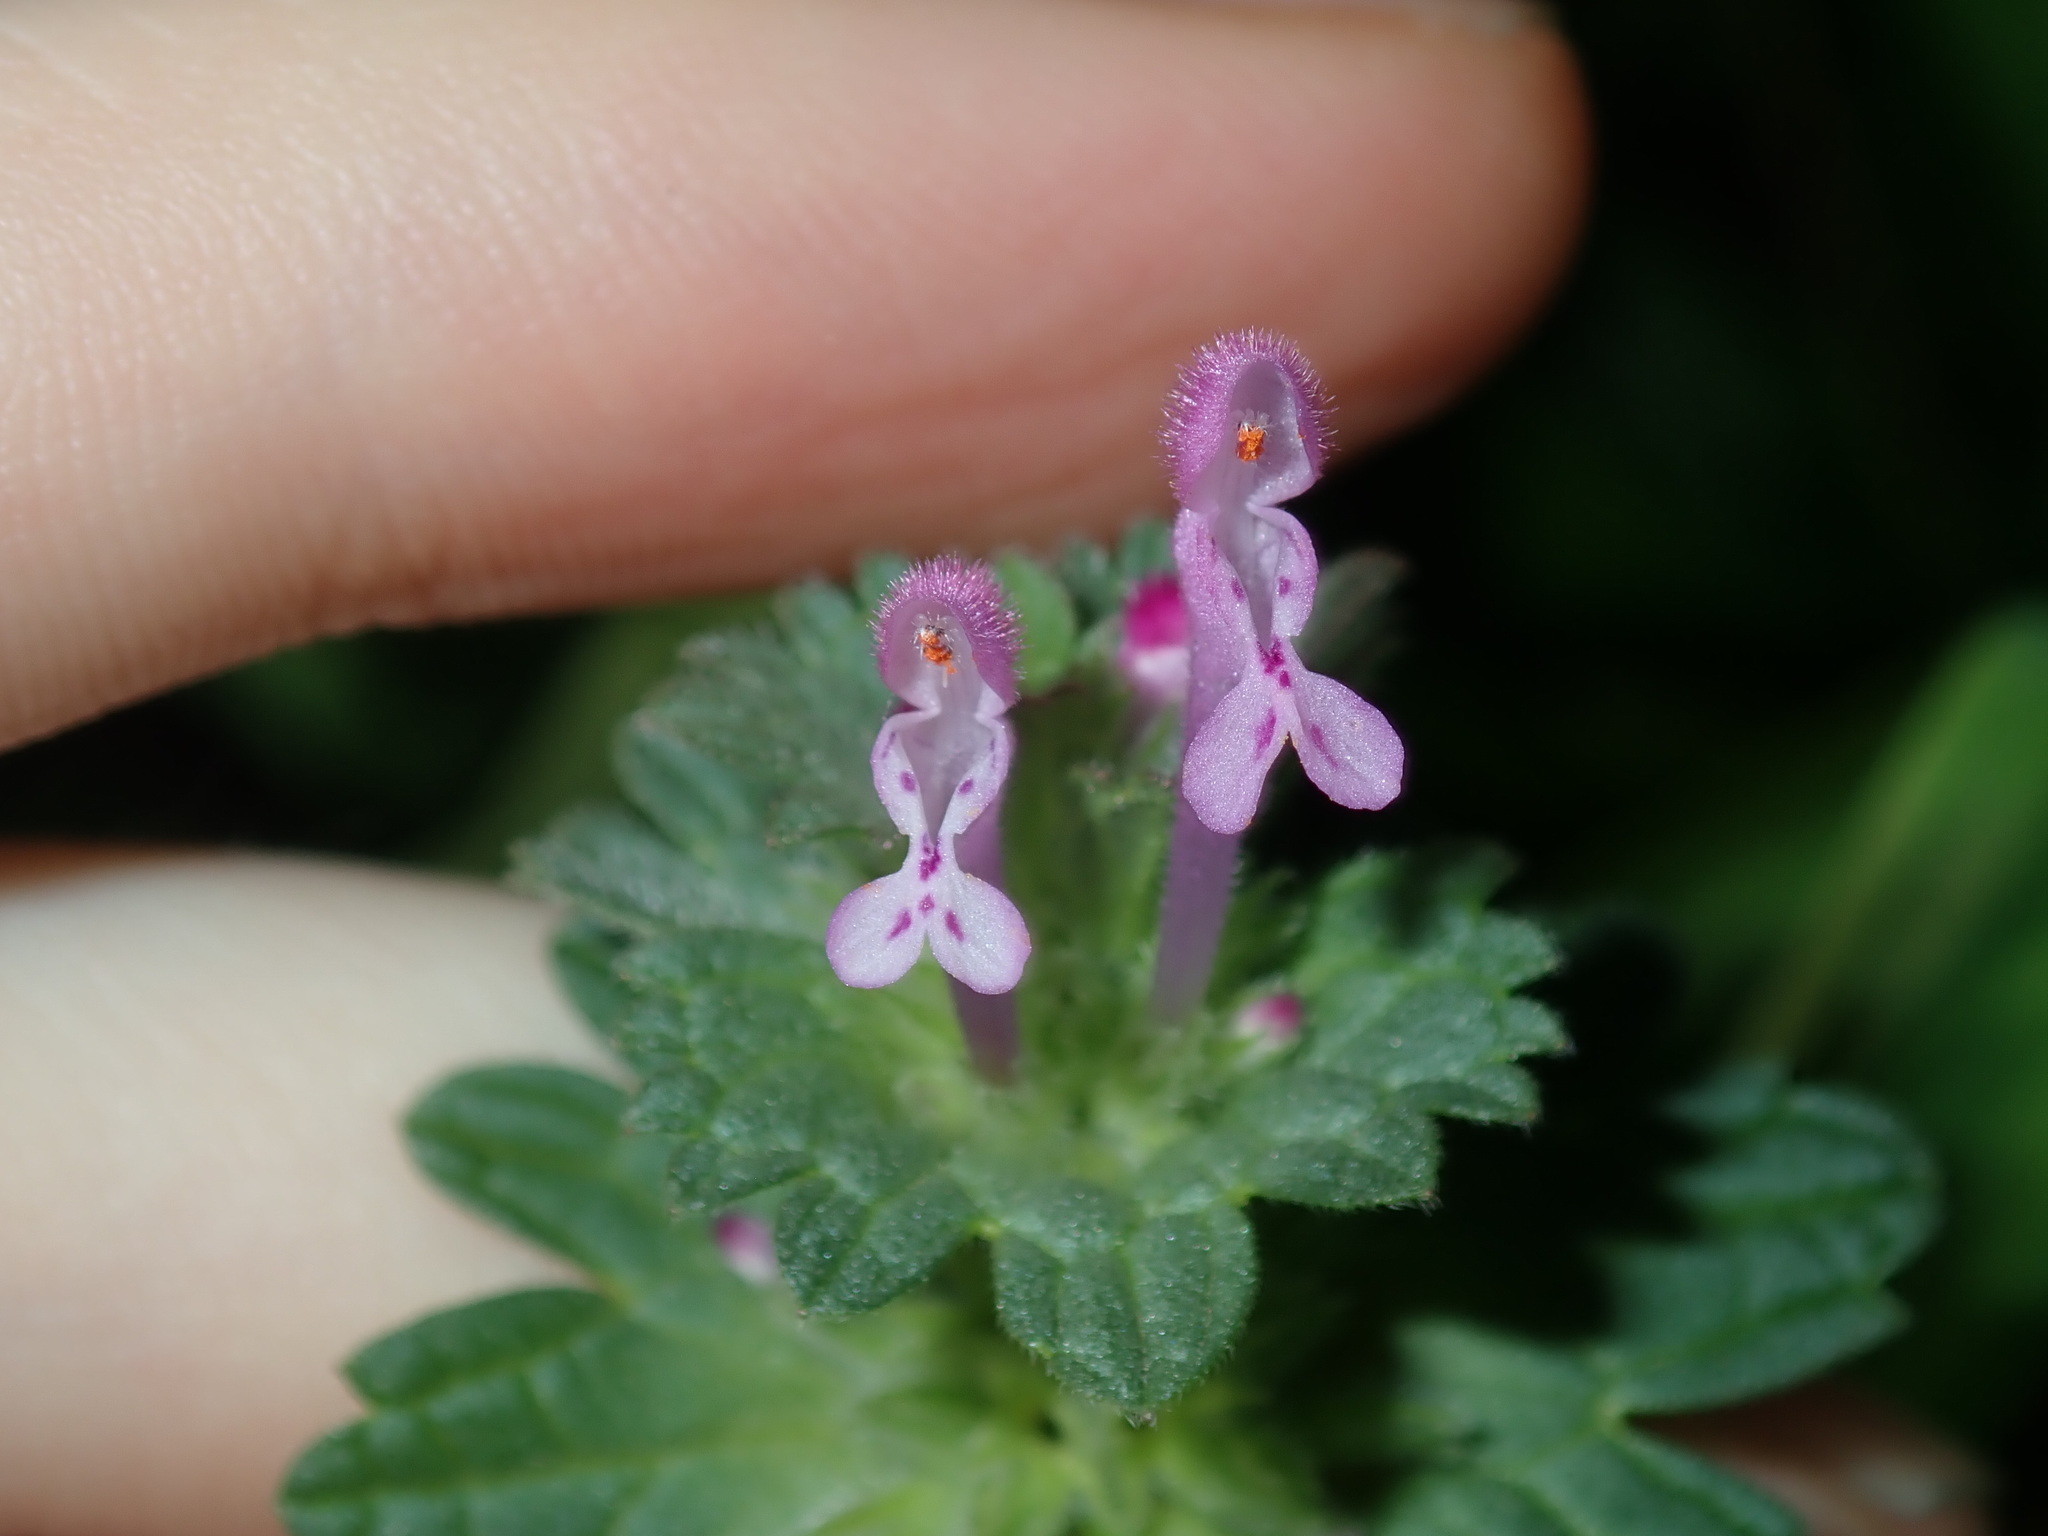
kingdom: Plantae
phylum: Tracheophyta
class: Magnoliopsida
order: Lamiales
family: Lamiaceae
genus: Lamium
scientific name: Lamium amplexicaule
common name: Henbit dead-nettle
